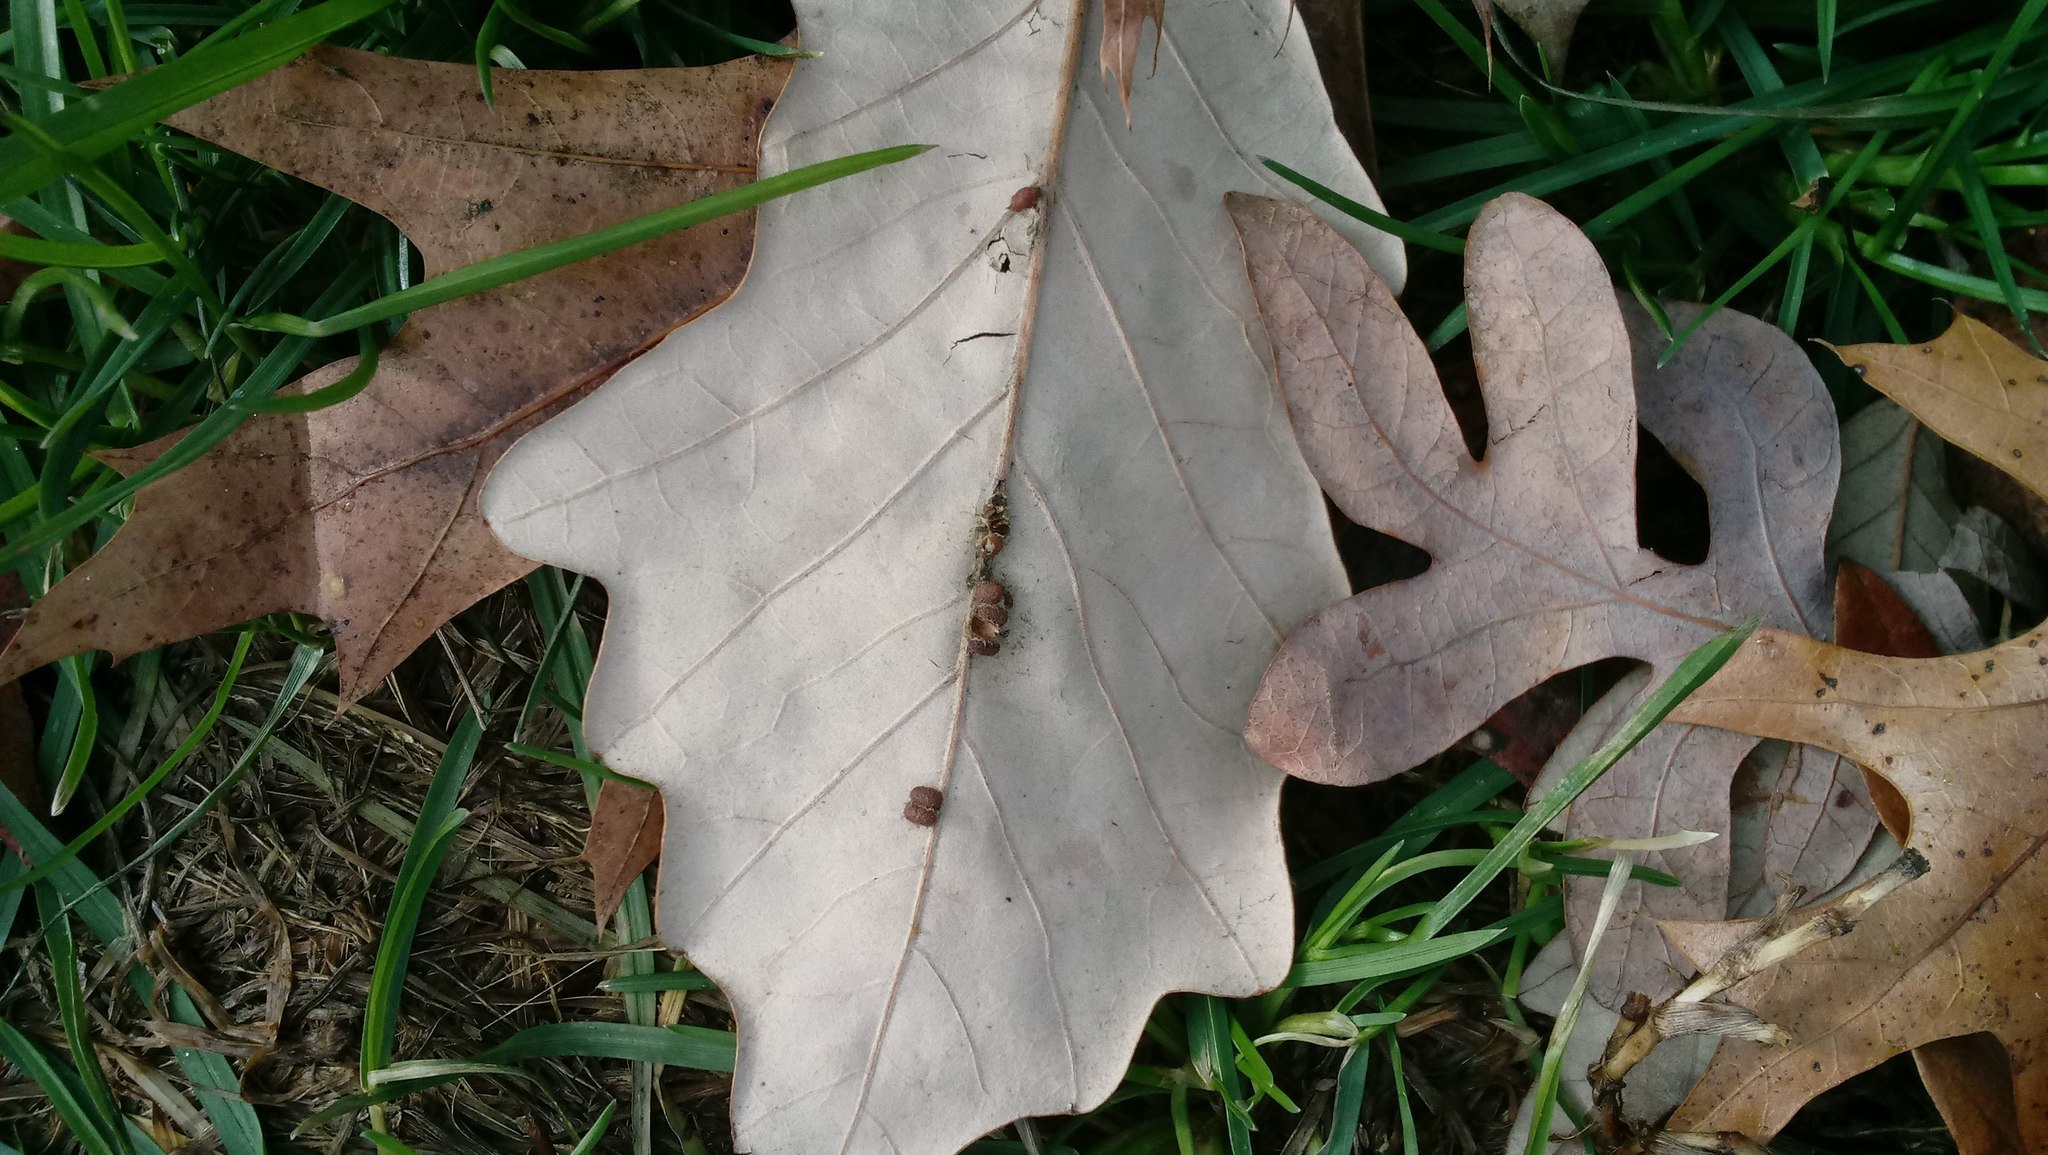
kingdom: Animalia
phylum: Arthropoda
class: Insecta
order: Hymenoptera
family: Cynipidae
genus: Andricus
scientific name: Andricus Druon ignotum
